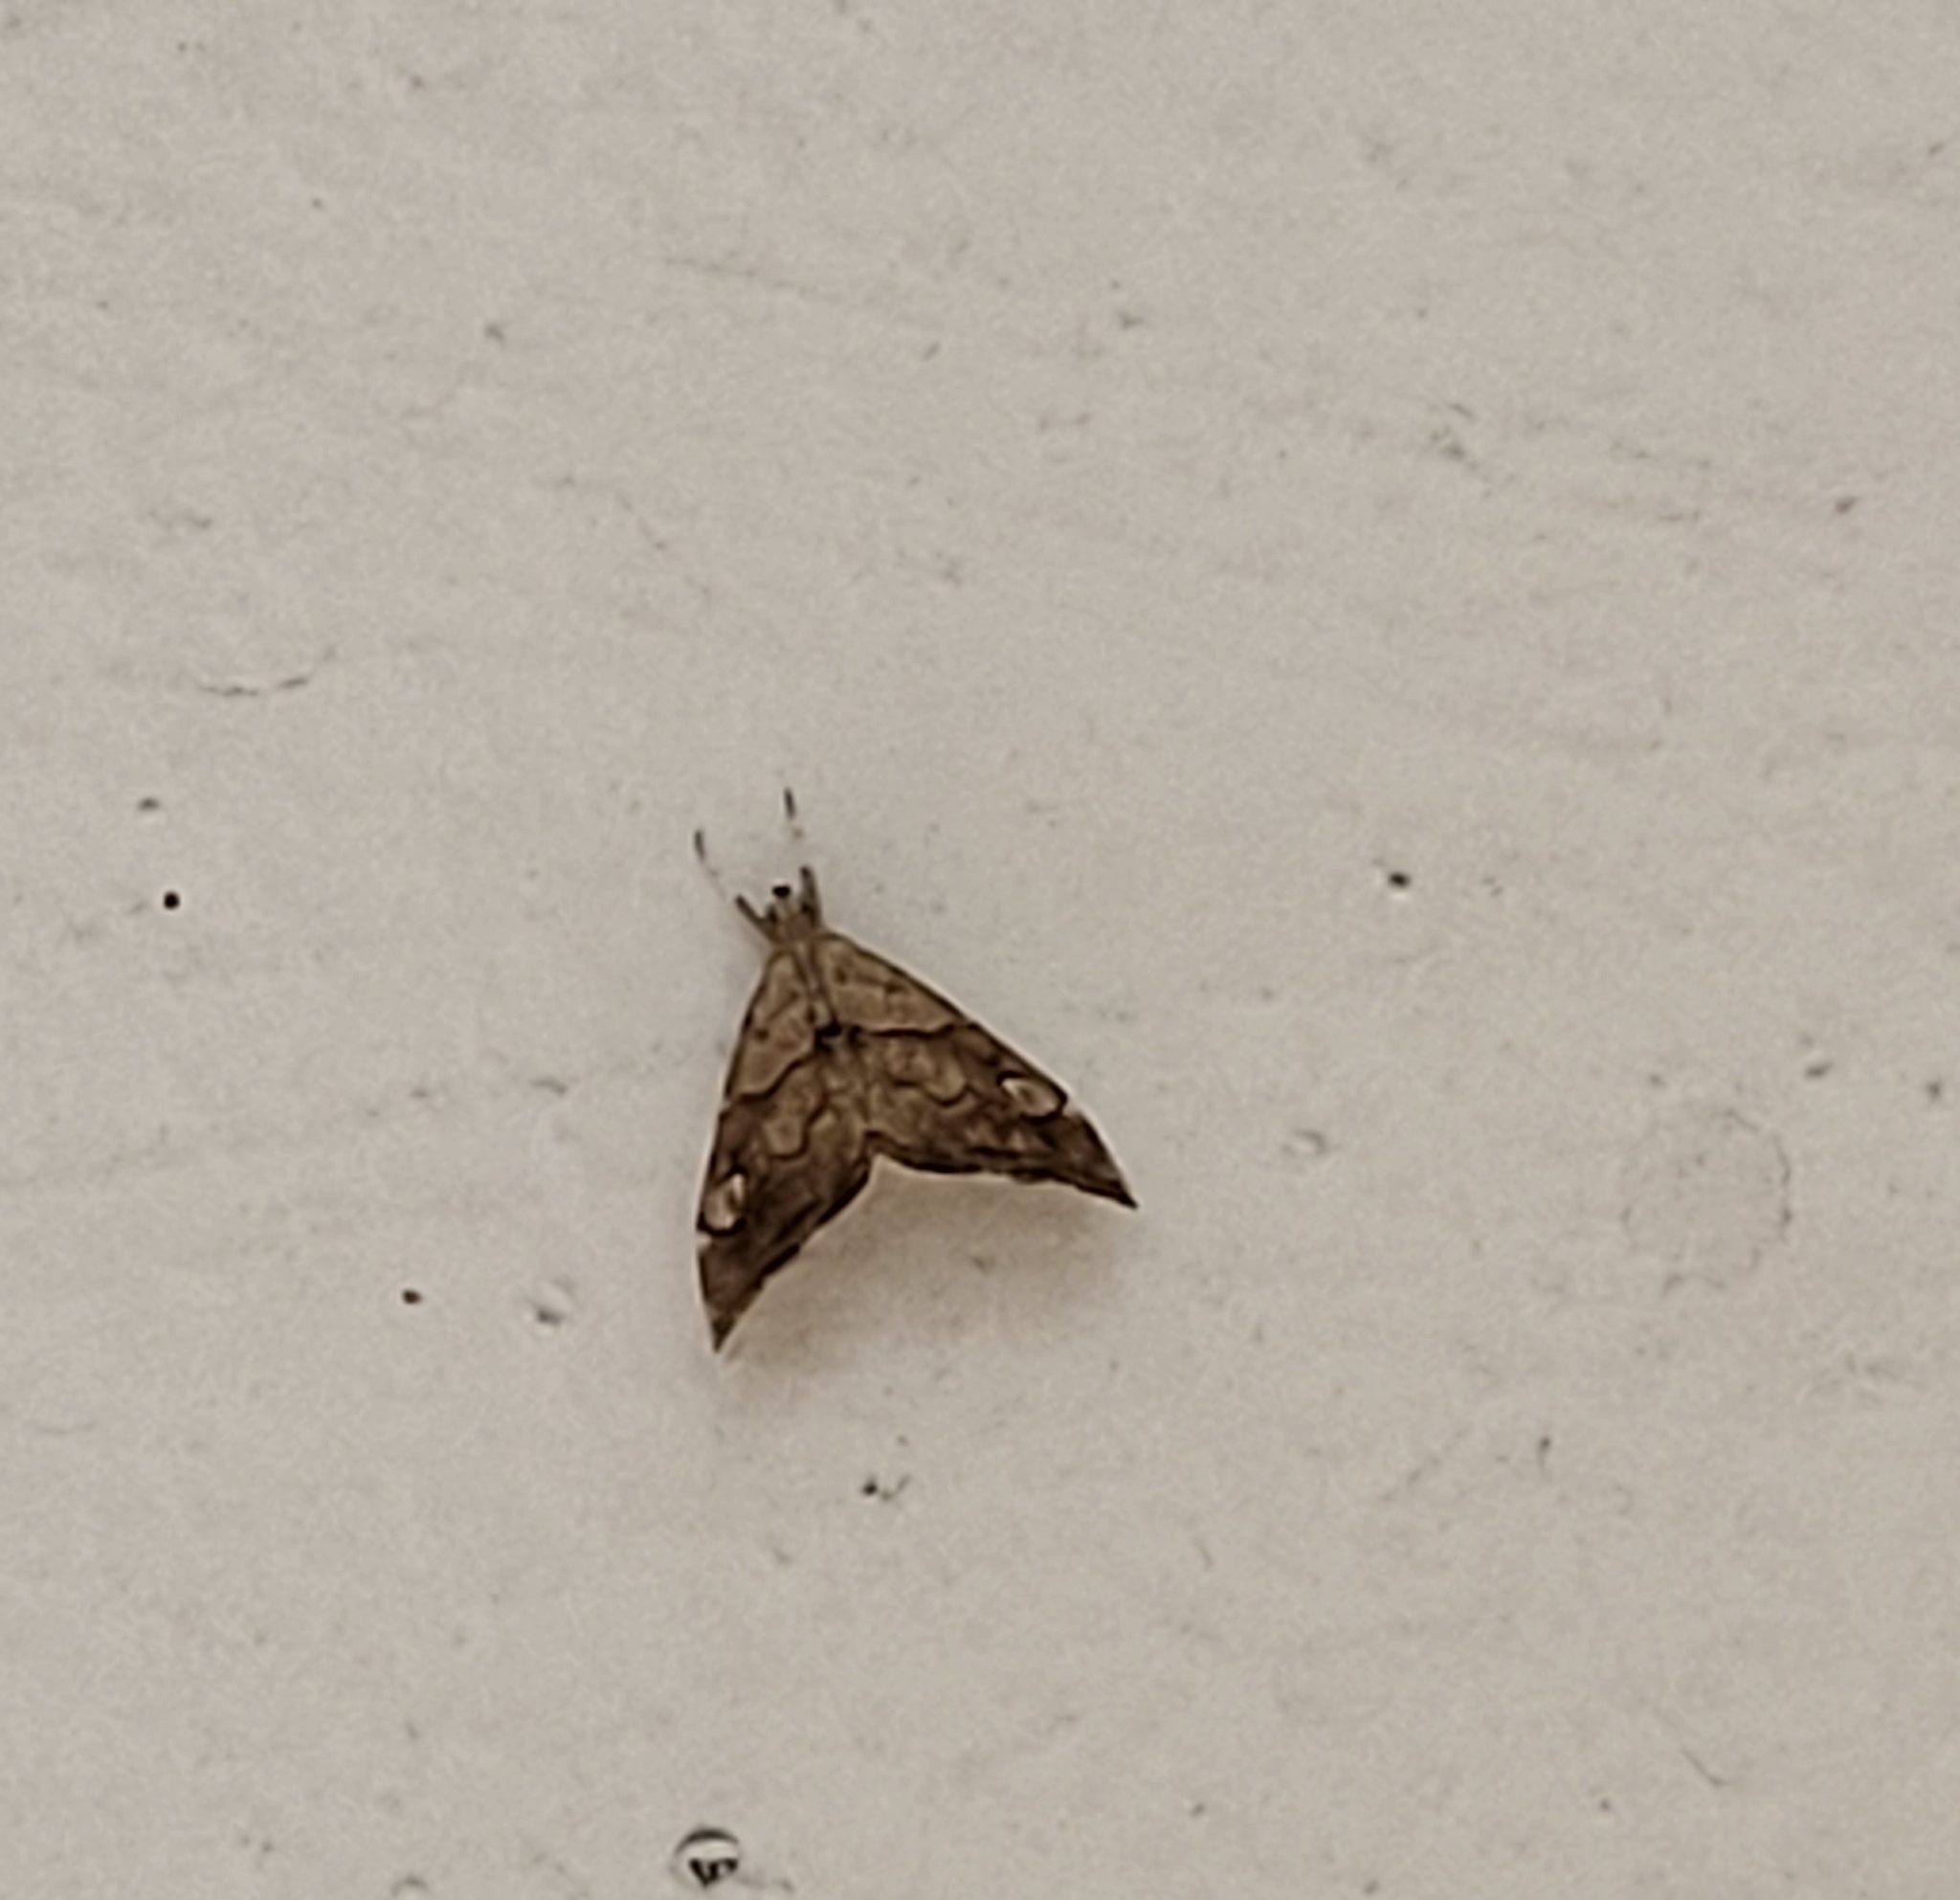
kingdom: Animalia
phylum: Arthropoda
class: Insecta
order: Lepidoptera
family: Crambidae
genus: Scybalistodes
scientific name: Scybalistodes periculosalis
